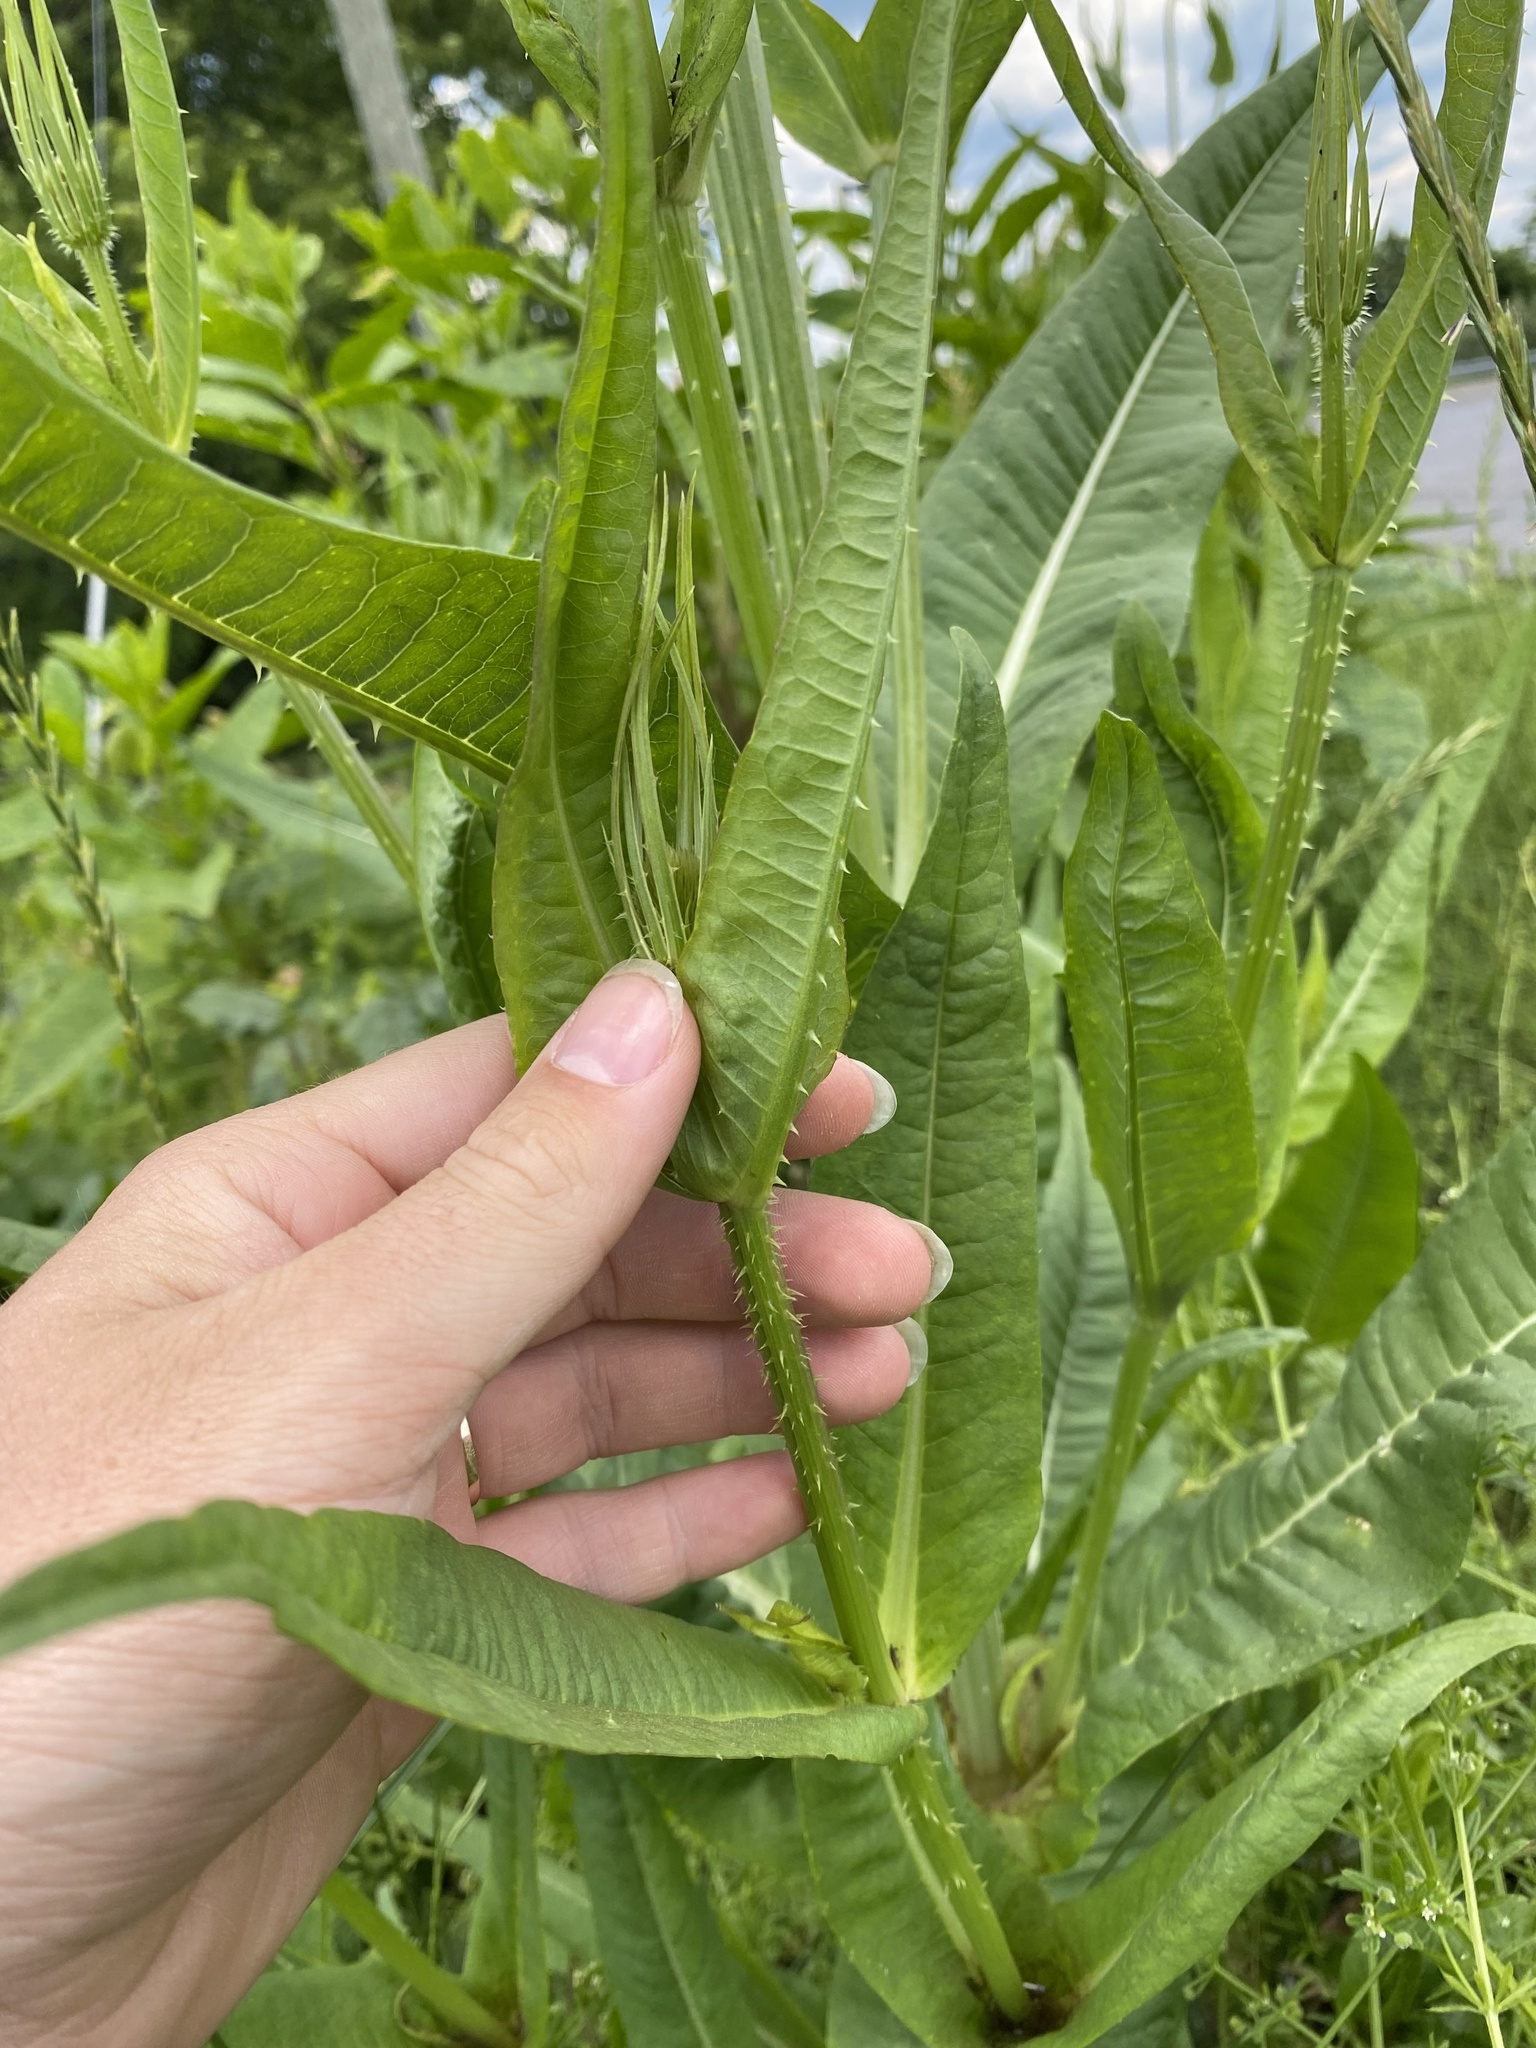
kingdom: Plantae
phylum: Tracheophyta
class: Magnoliopsida
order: Dipsacales
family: Caprifoliaceae
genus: Dipsacus
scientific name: Dipsacus fullonum
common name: Teasel
